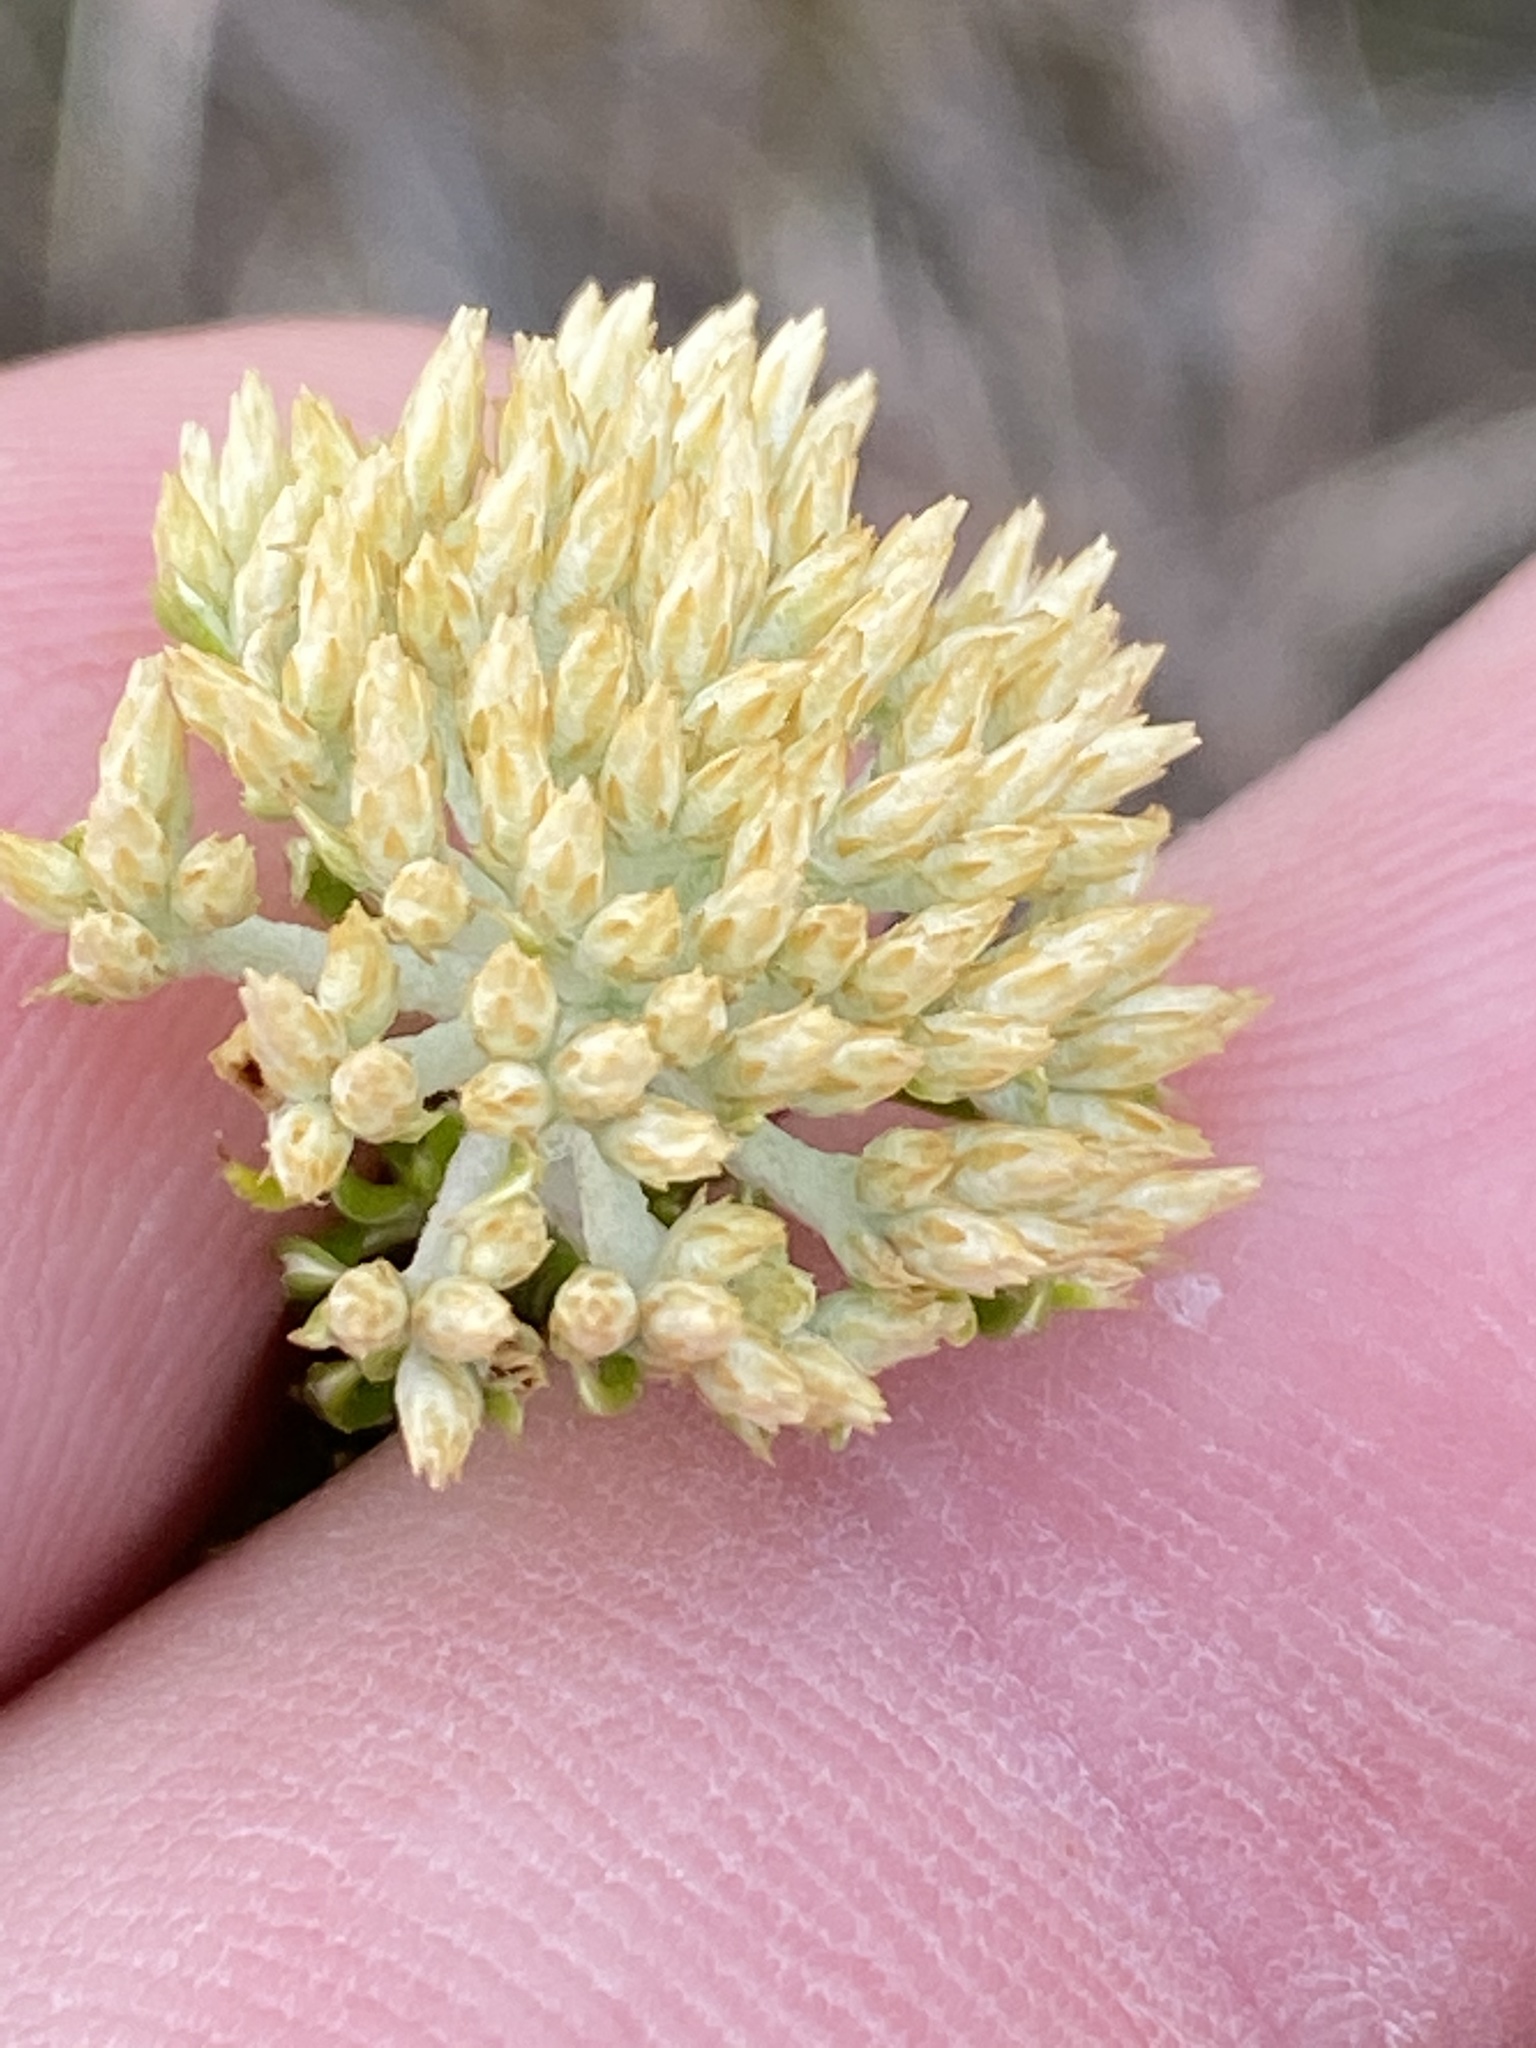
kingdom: Plantae
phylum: Tracheophyta
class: Magnoliopsida
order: Asterales
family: Asteraceae
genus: Metalasia
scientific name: Metalasia muricata
